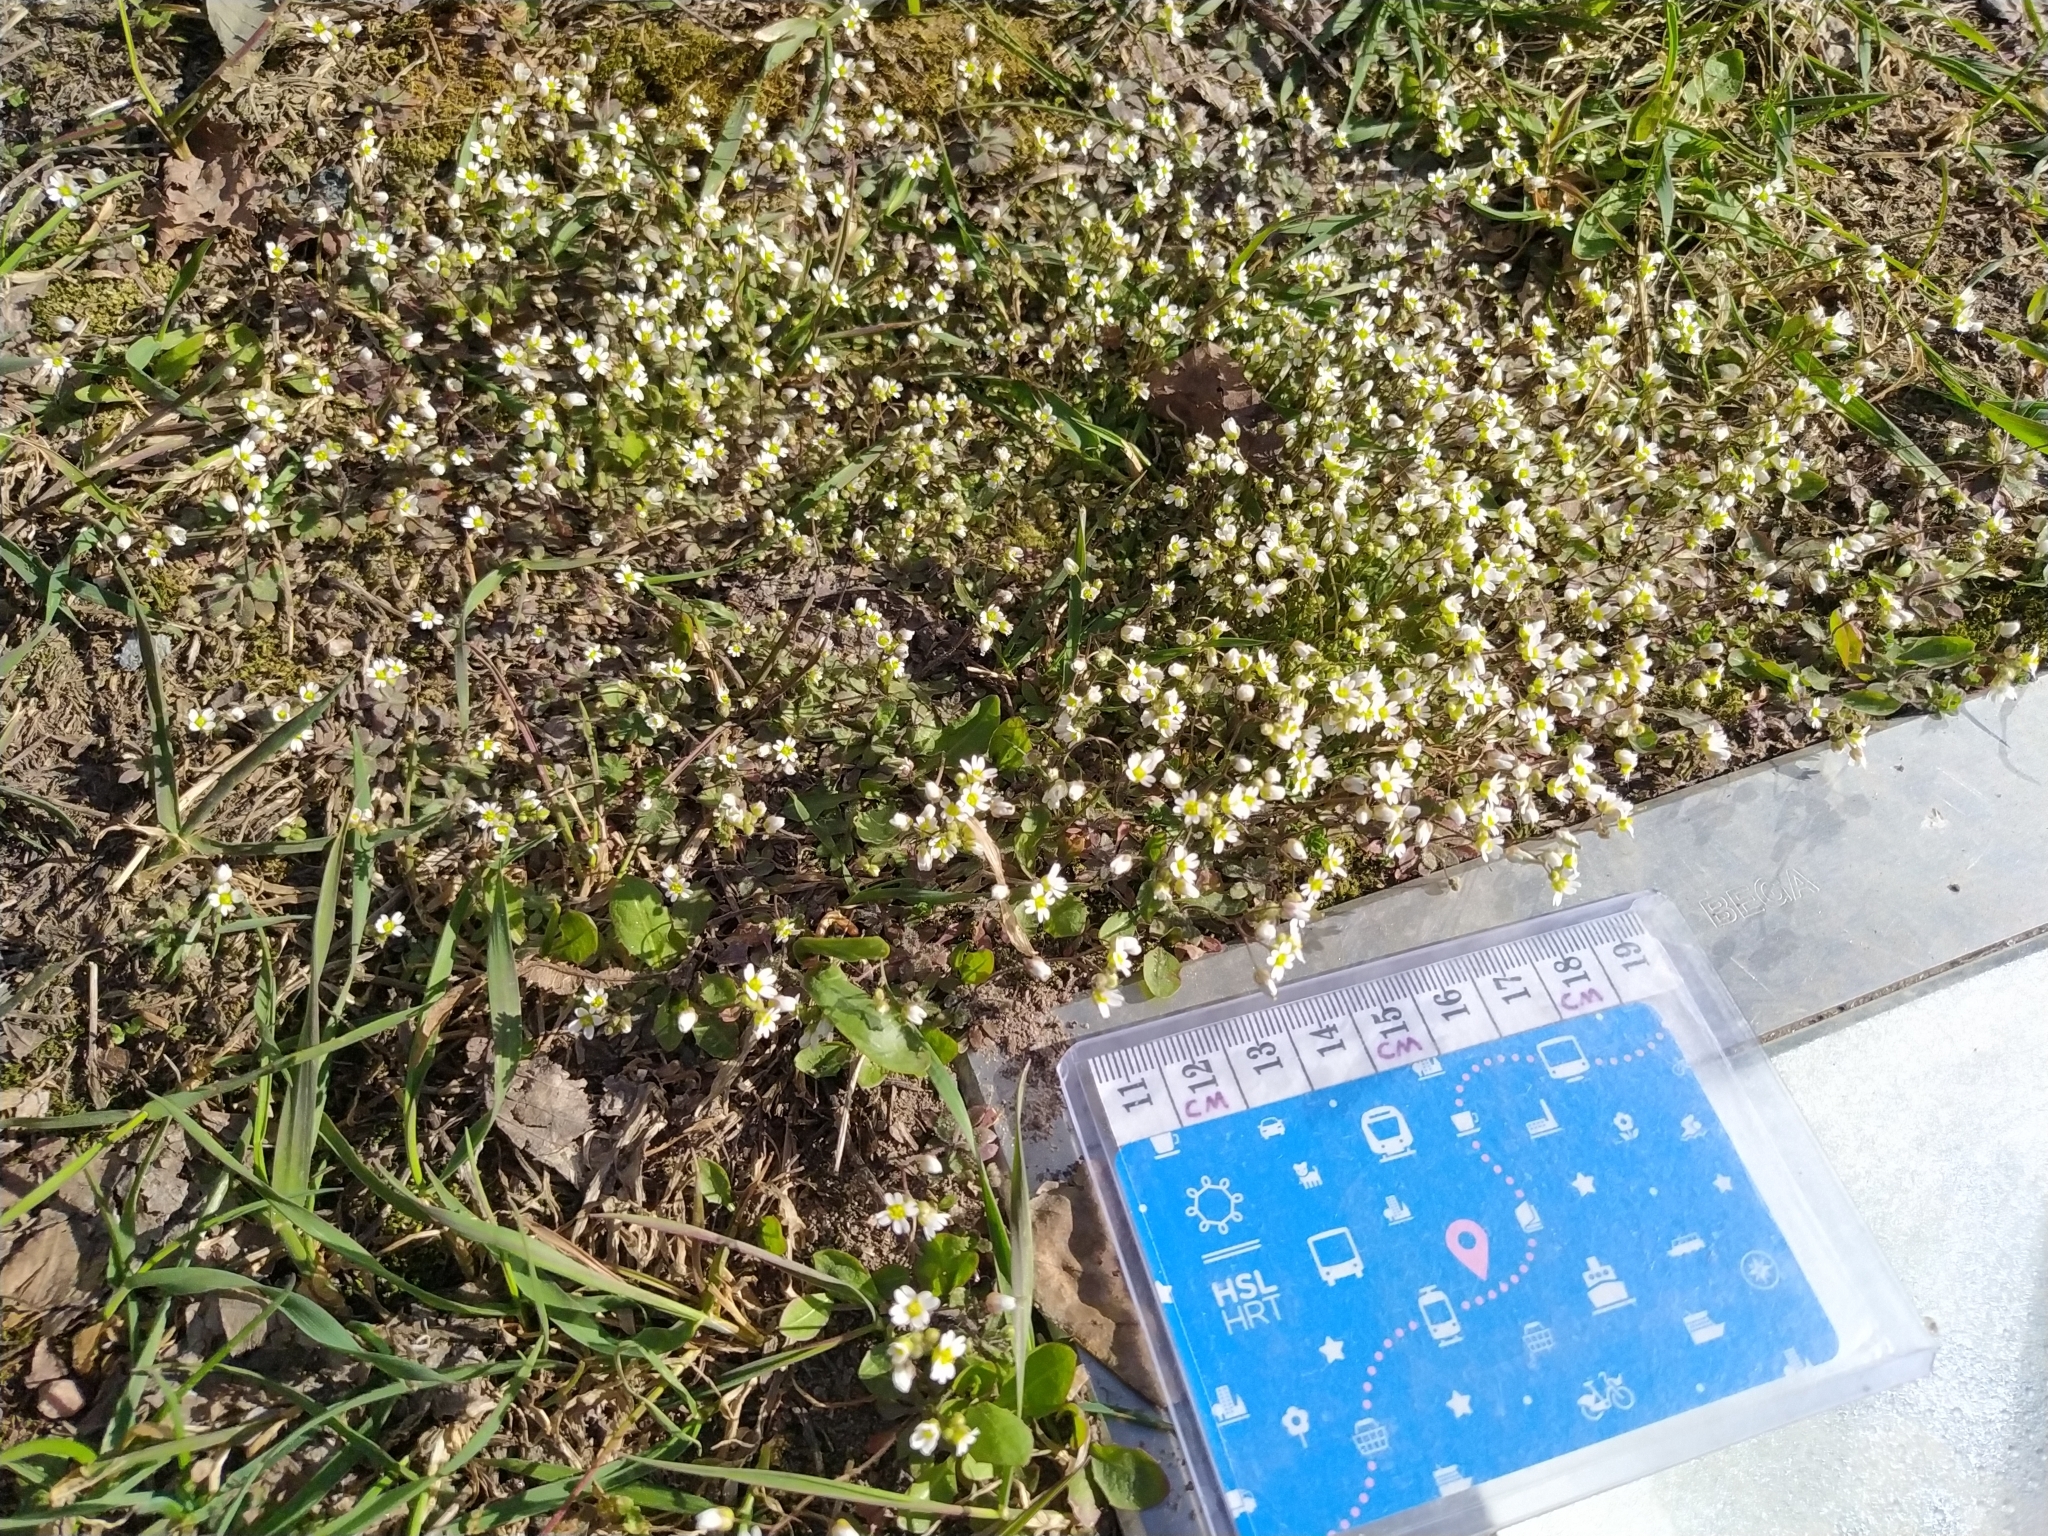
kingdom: Plantae
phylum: Tracheophyta
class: Magnoliopsida
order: Brassicales
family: Brassicaceae
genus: Draba
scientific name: Draba verna
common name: Spring draba
